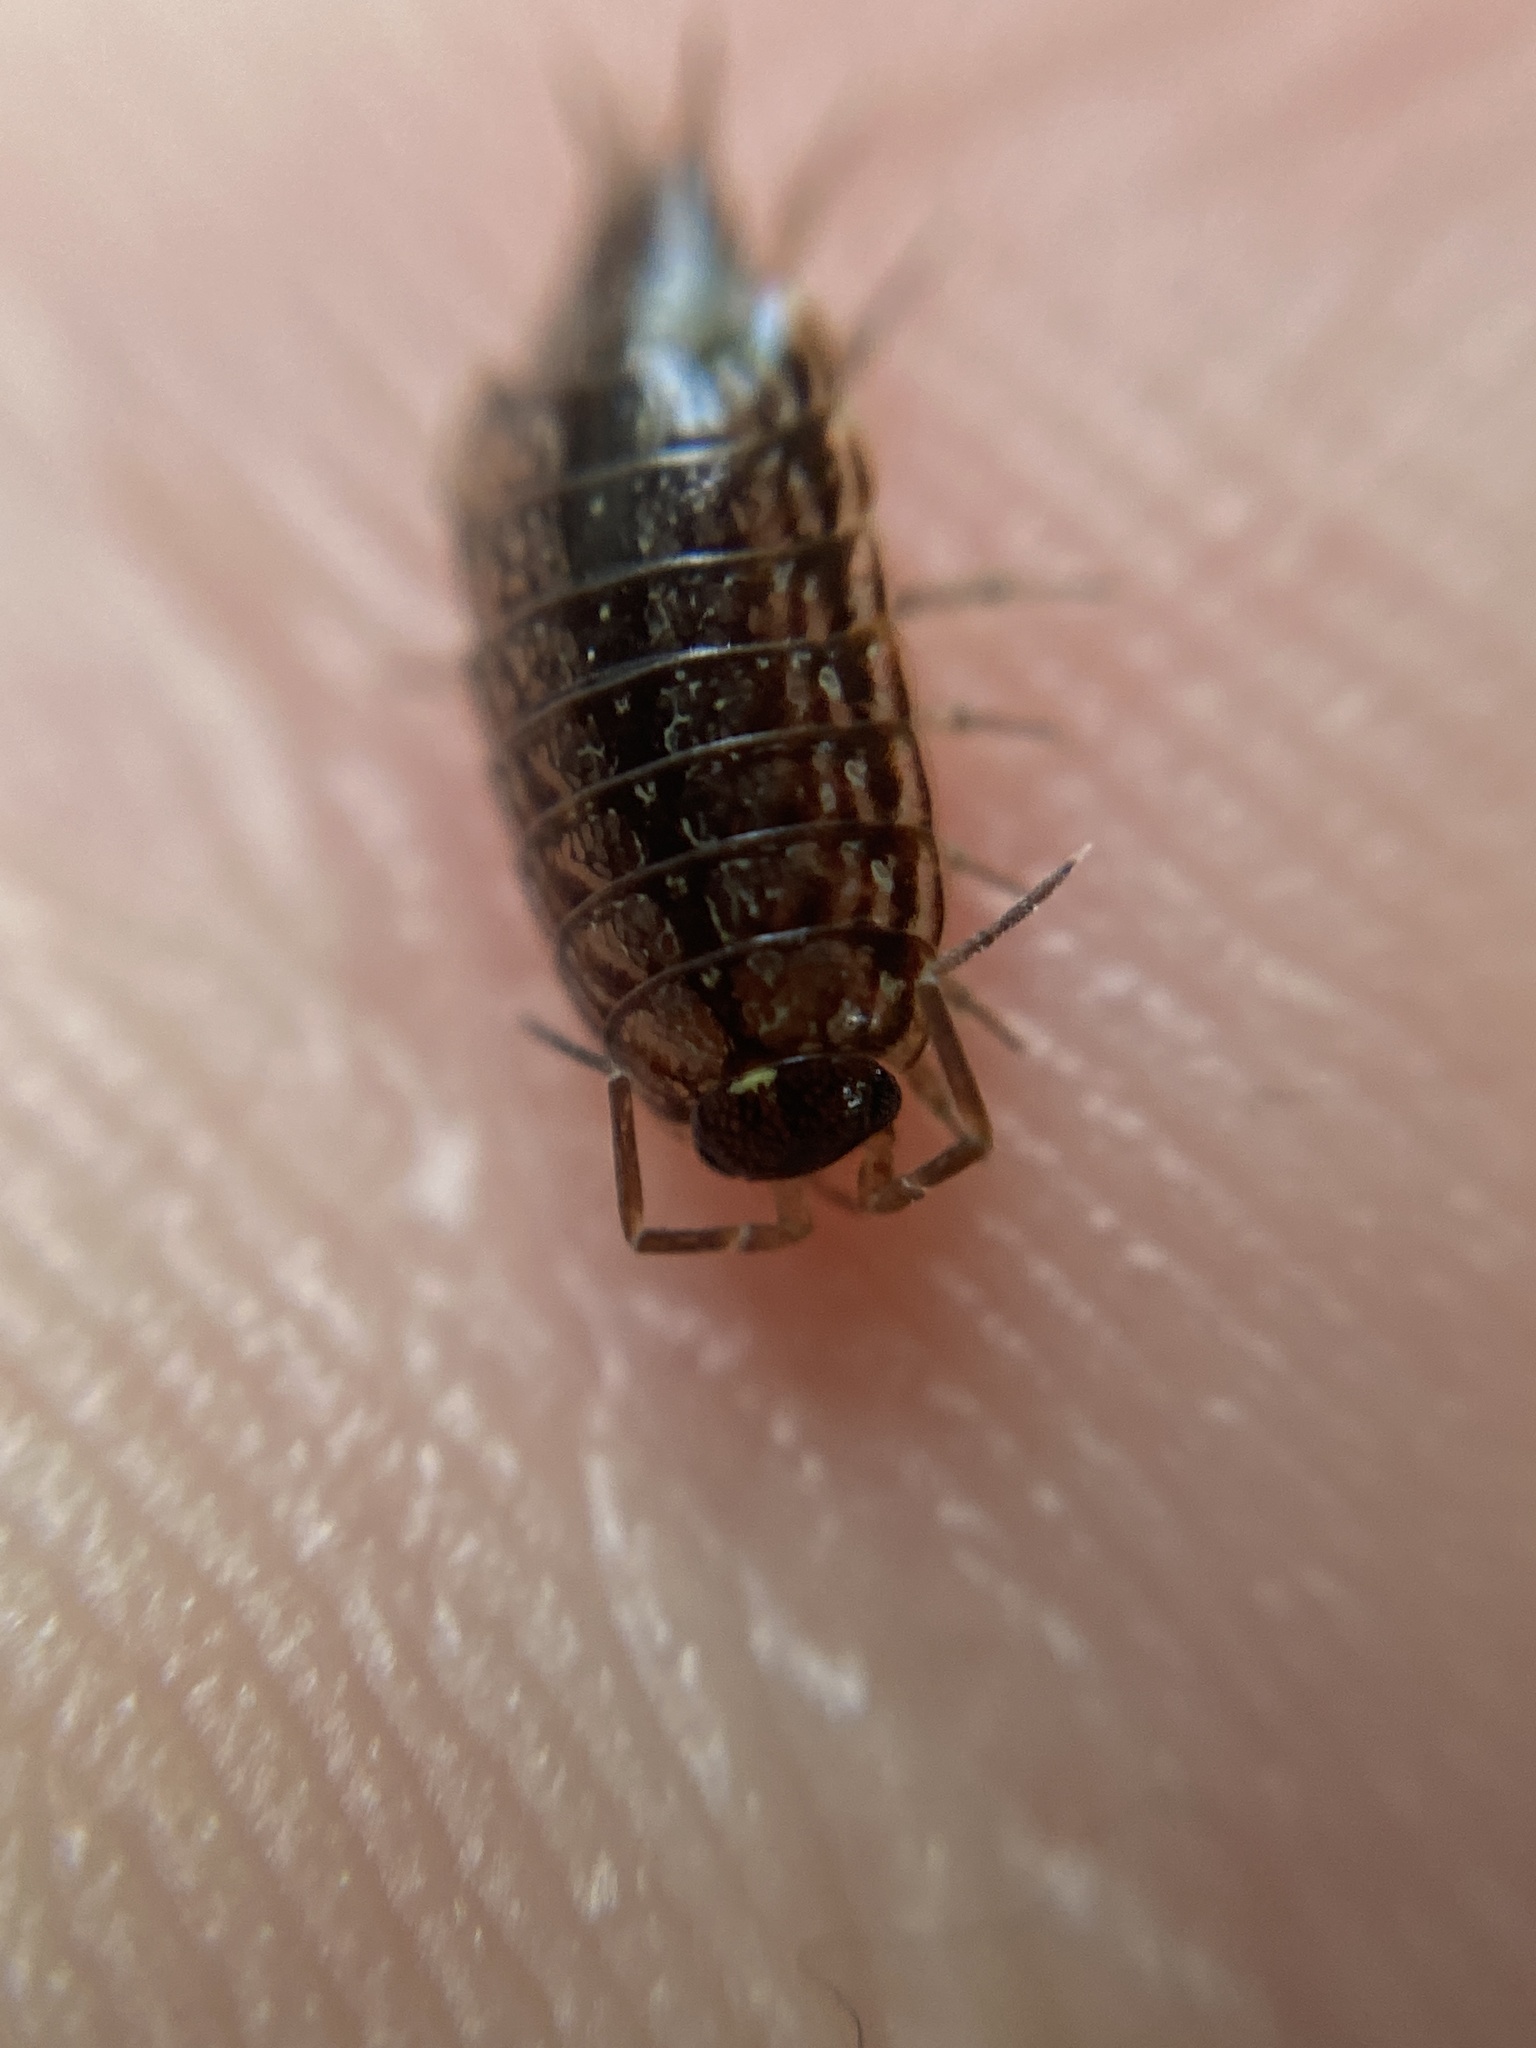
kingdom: Animalia
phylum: Arthropoda
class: Malacostraca
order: Isopoda
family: Philosciidae
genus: Philoscia
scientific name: Philoscia muscorum
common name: Common striped woodlouse
